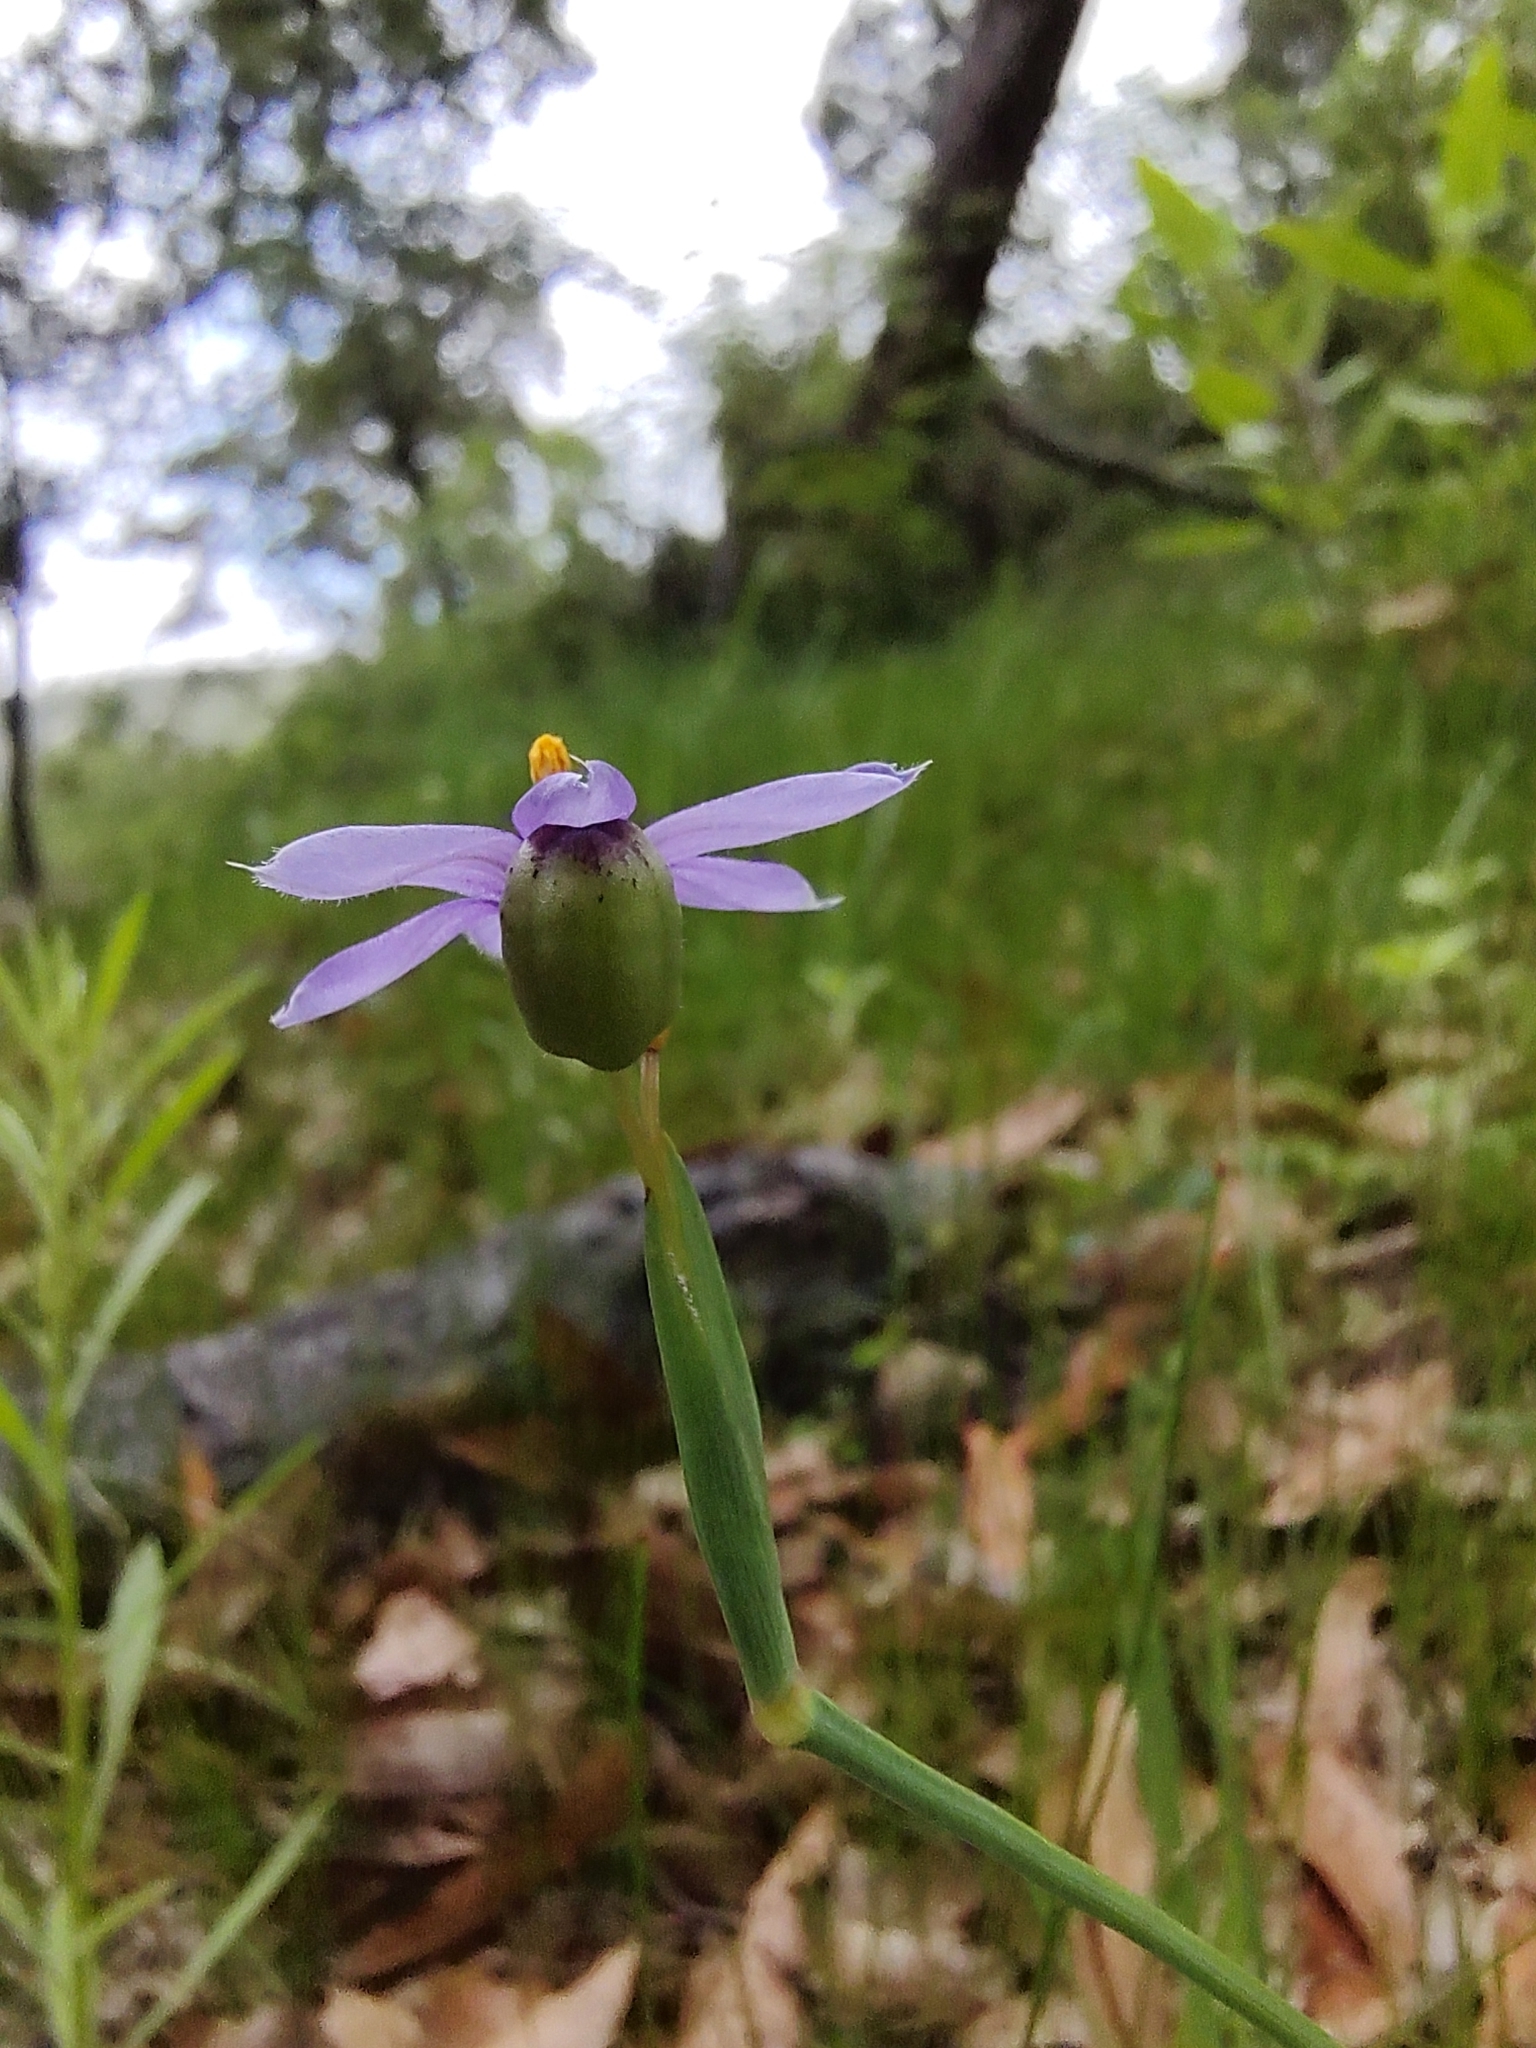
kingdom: Plantae
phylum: Tracheophyta
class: Liliopsida
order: Asparagales
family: Iridaceae
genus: Sisyrinchium
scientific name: Sisyrinchium demissum
